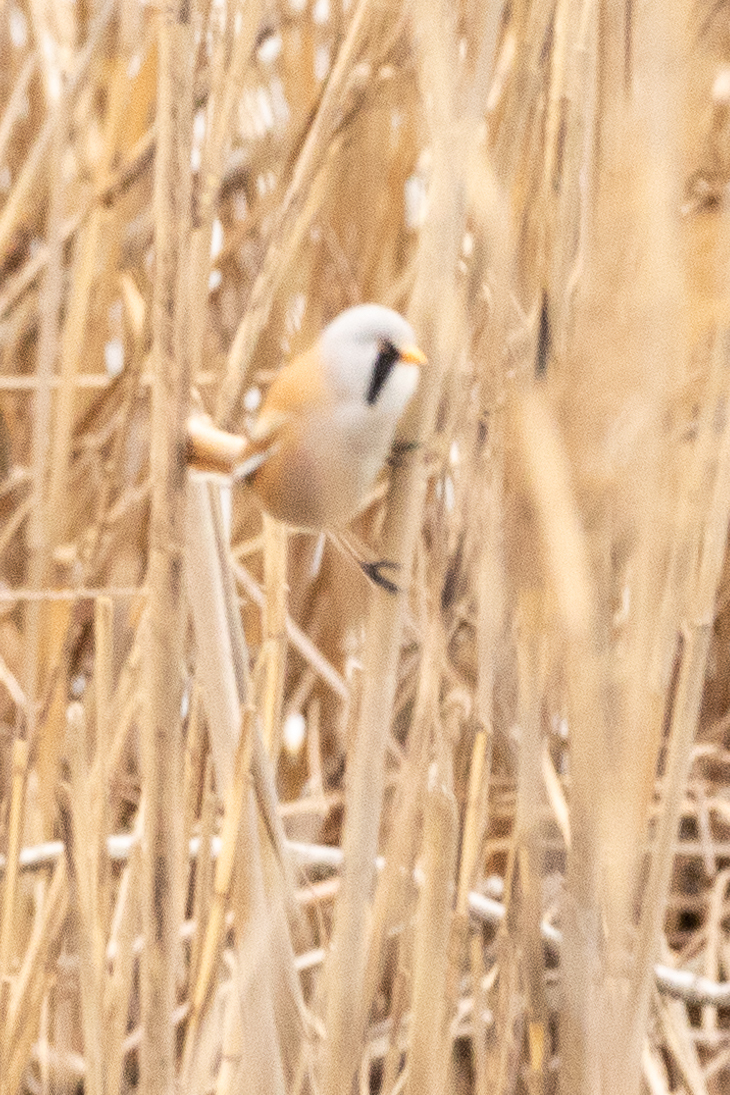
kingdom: Animalia
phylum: Chordata
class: Aves
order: Passeriformes
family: Panuridae
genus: Panurus
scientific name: Panurus biarmicus
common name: Bearded reedling
